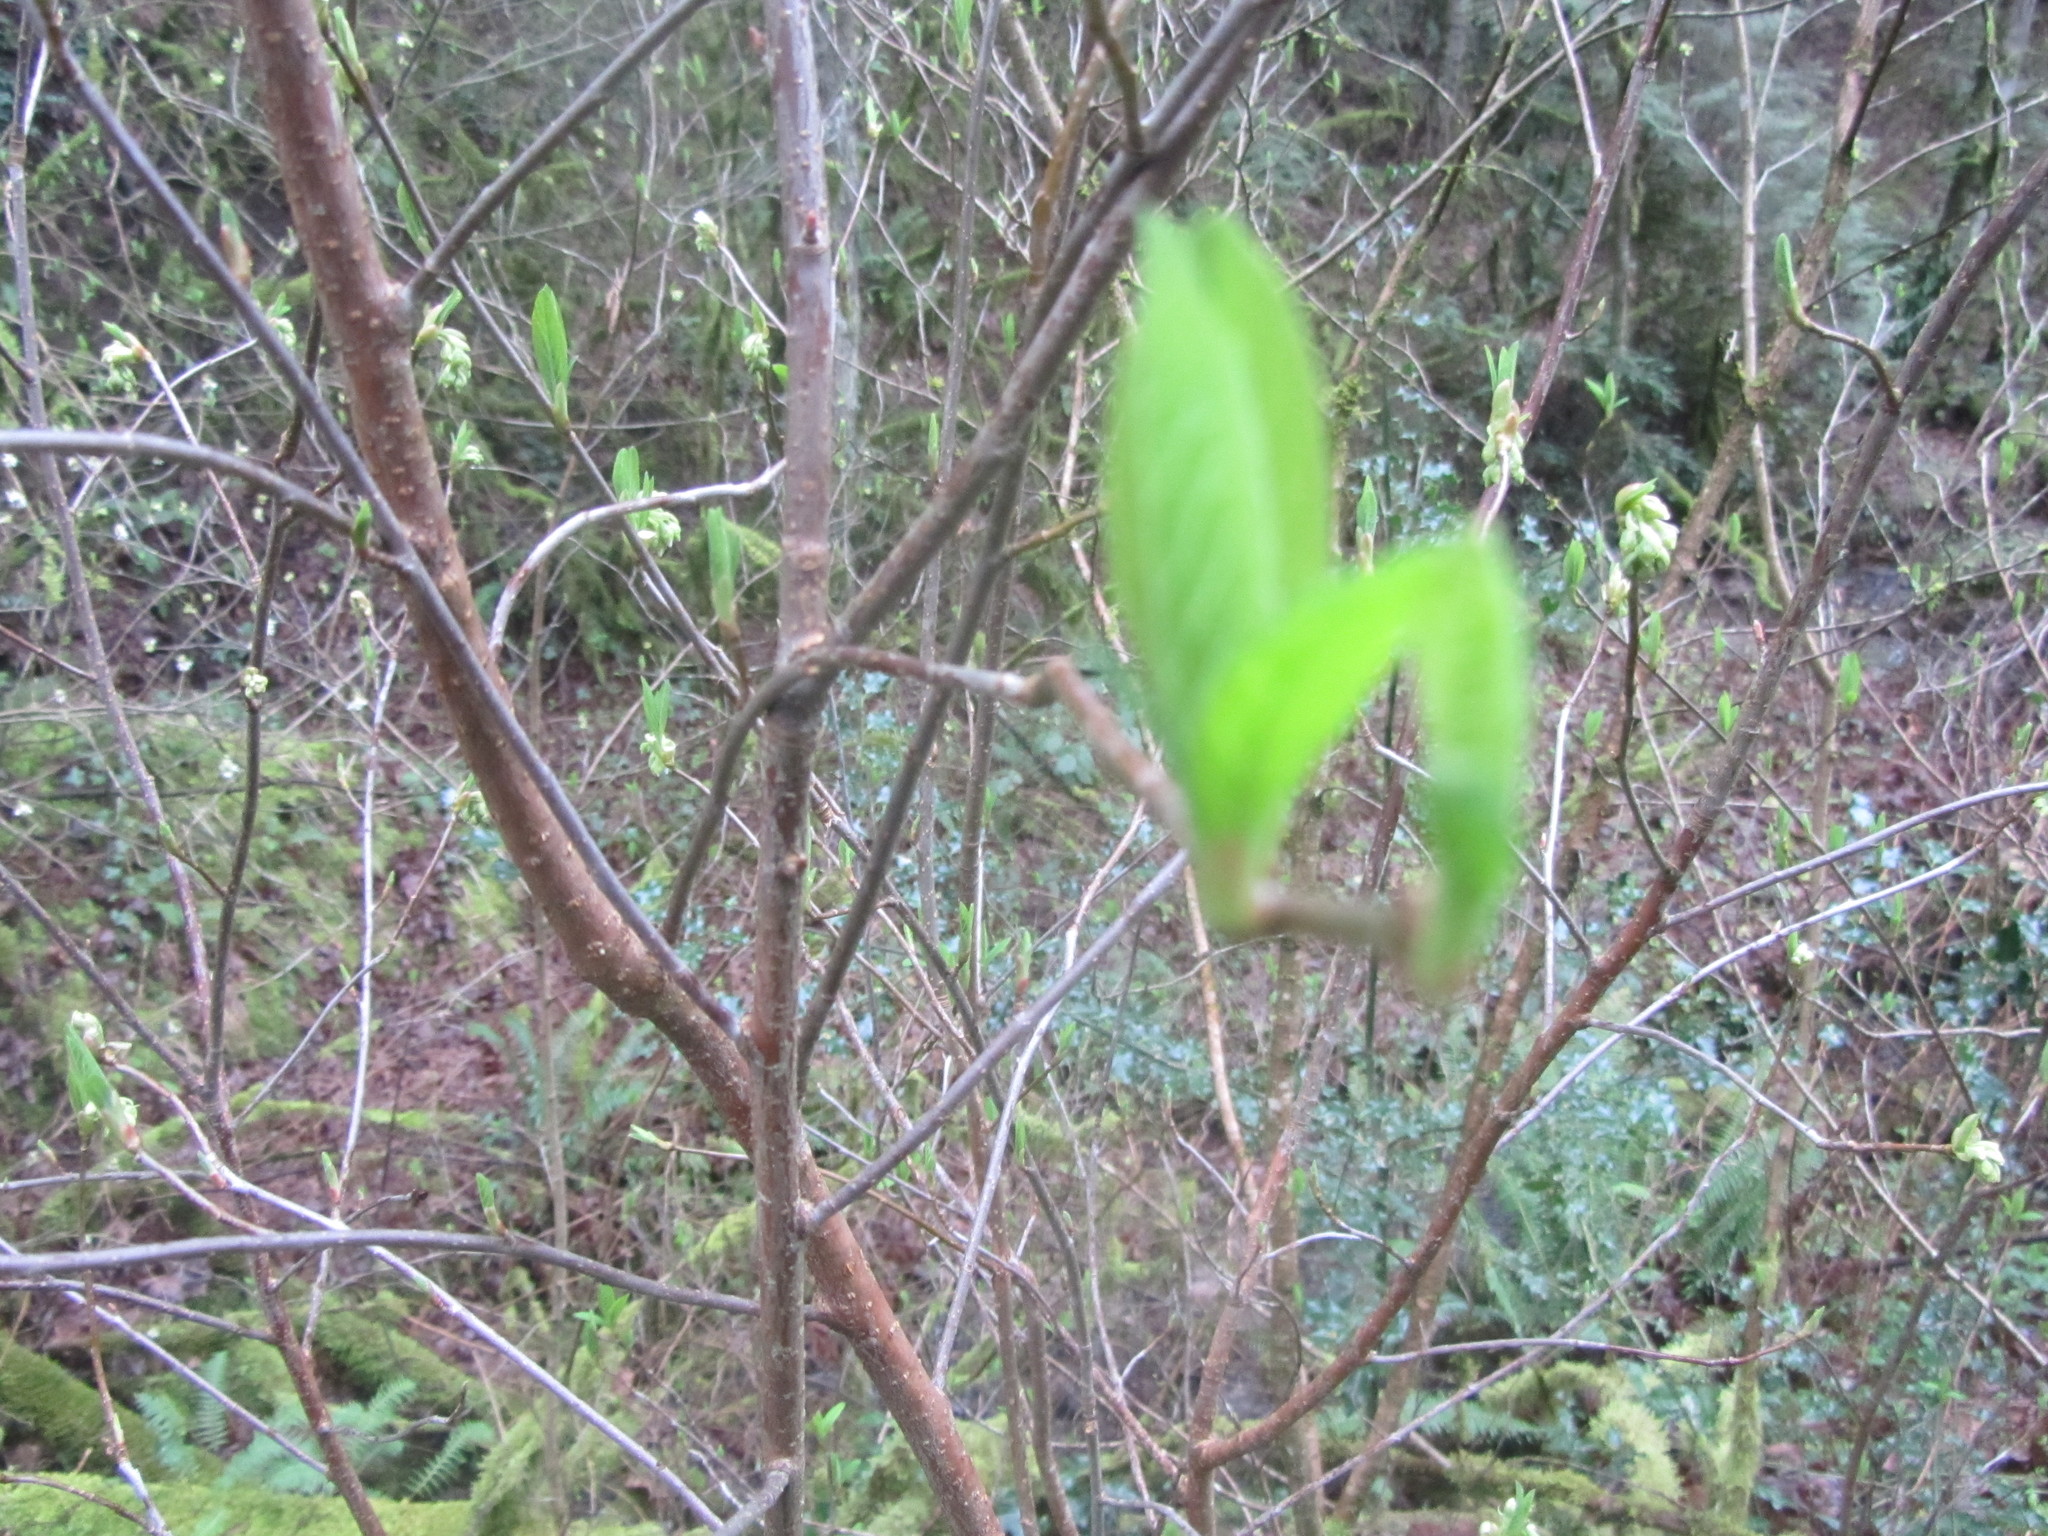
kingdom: Plantae
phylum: Tracheophyta
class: Magnoliopsida
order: Rosales
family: Rosaceae
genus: Oemleria
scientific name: Oemleria cerasiformis
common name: Osoberry
